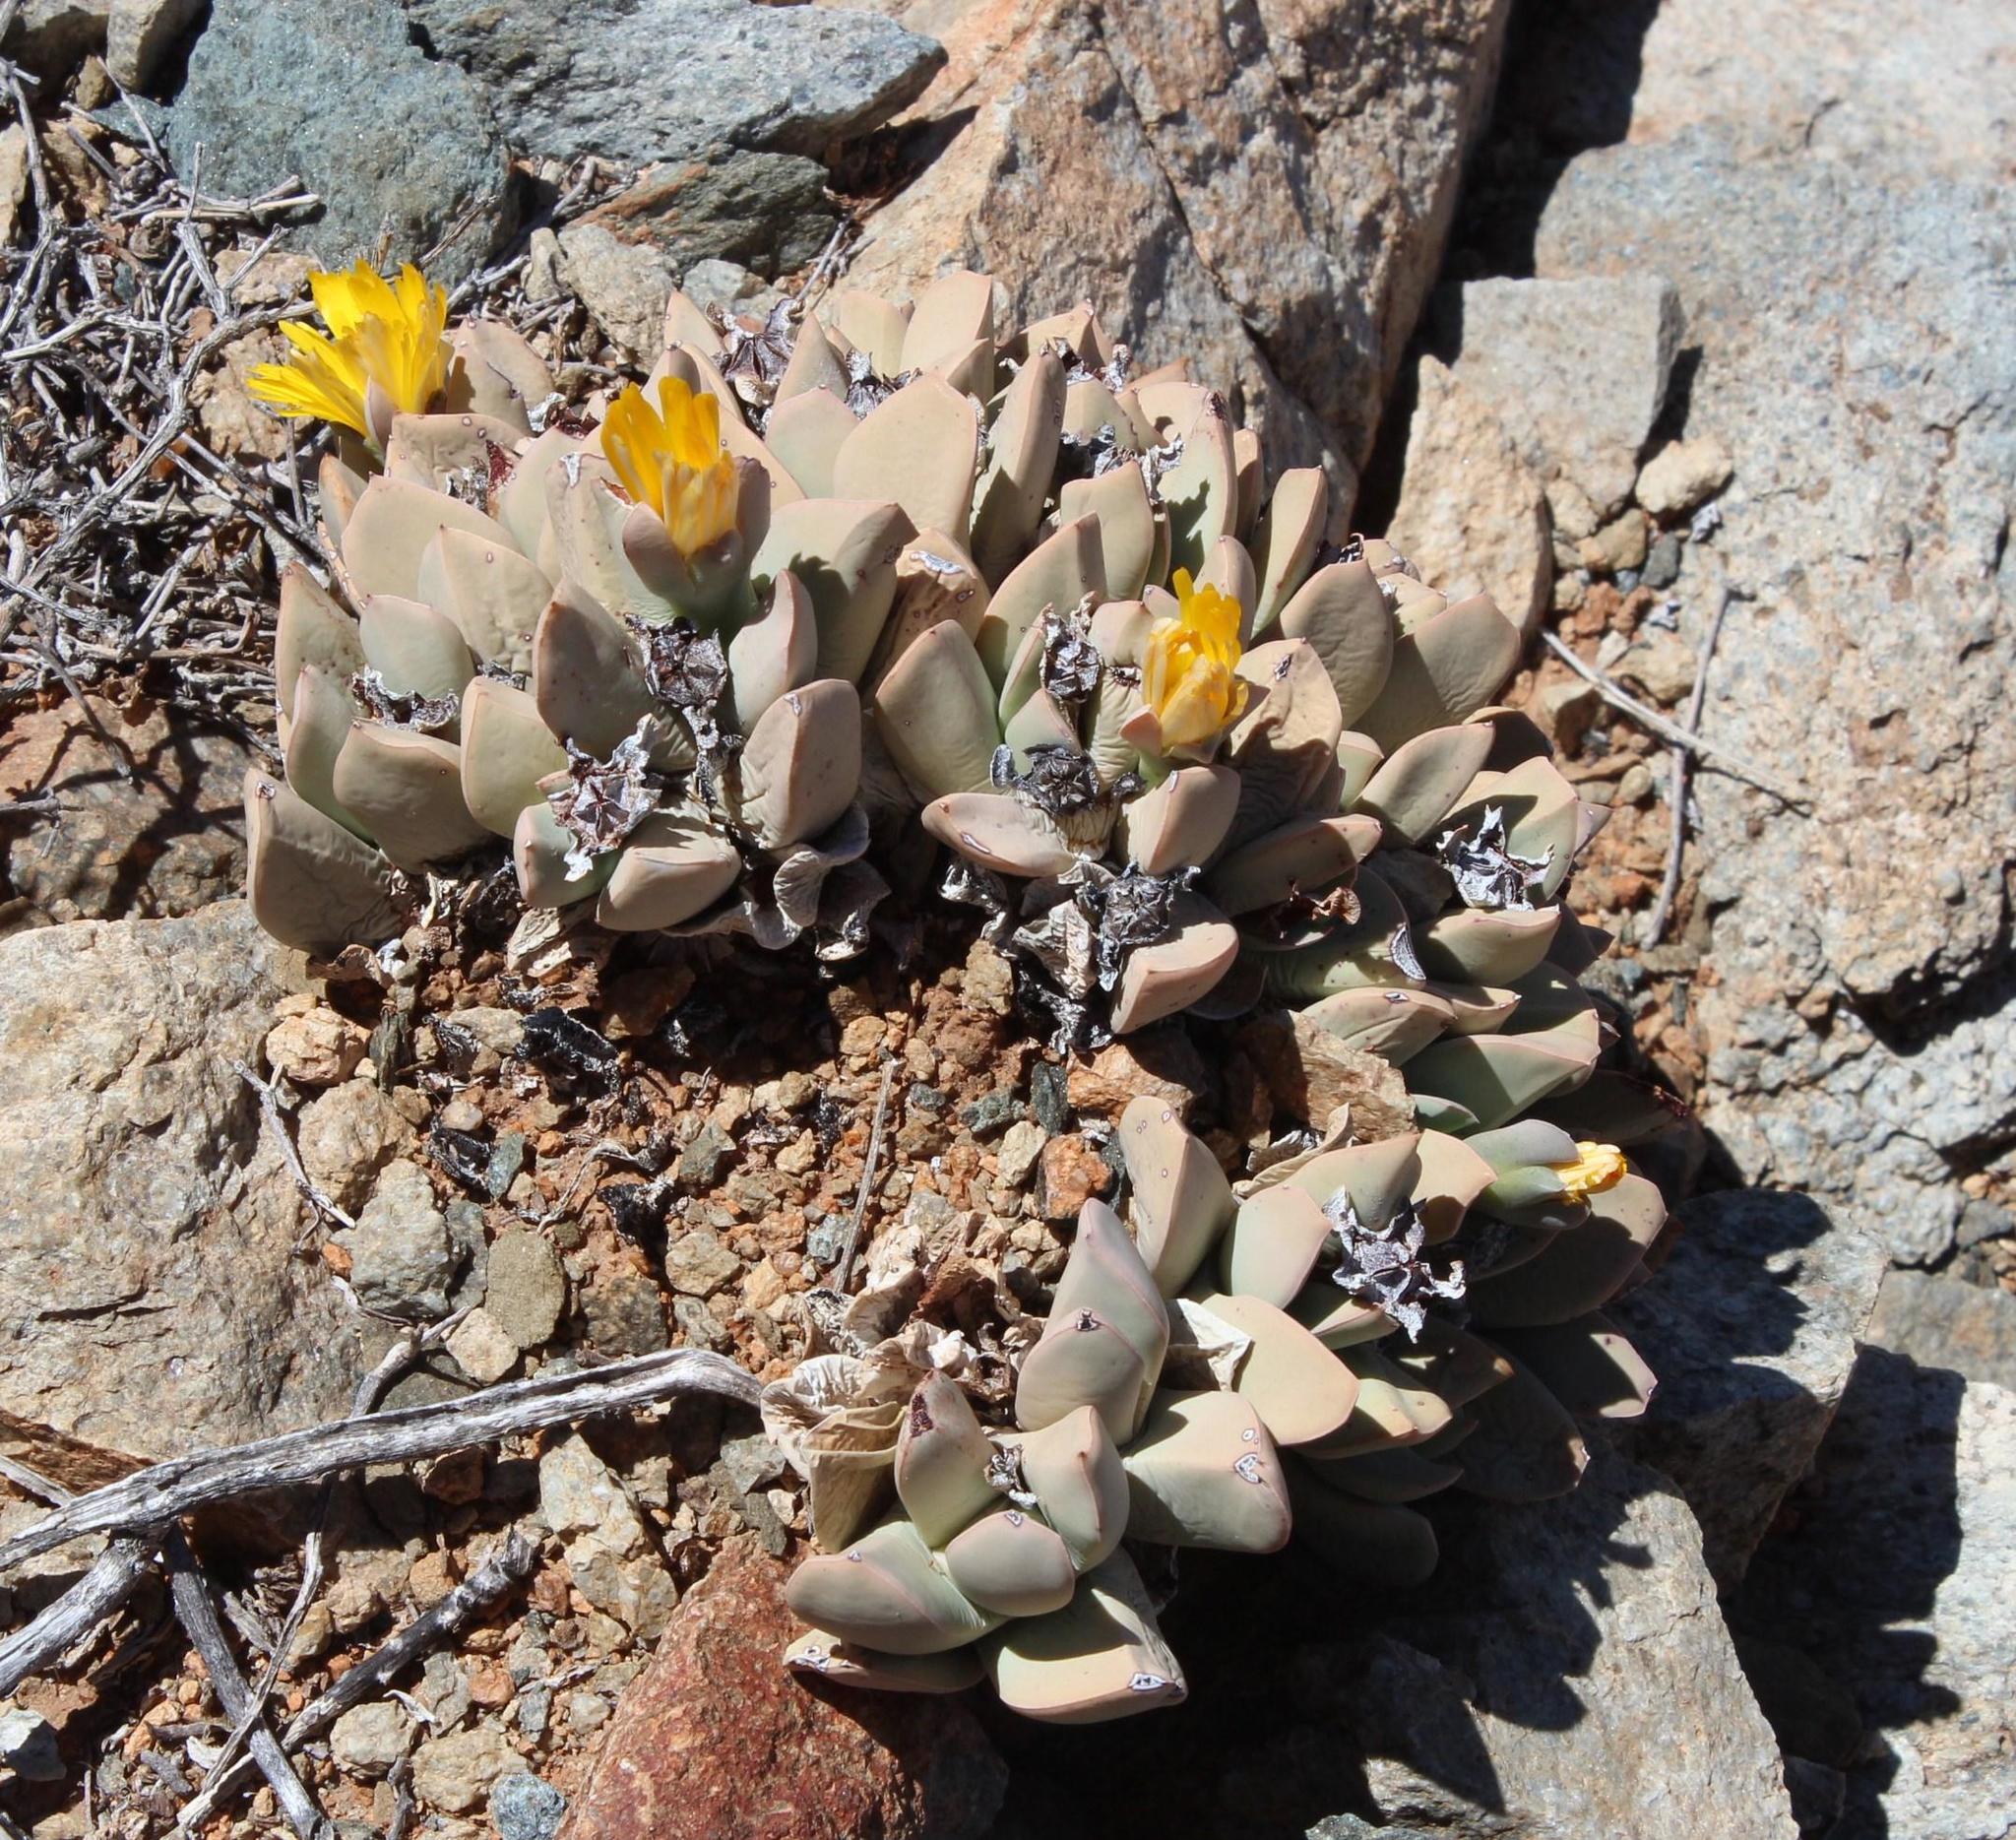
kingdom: Plantae
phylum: Tracheophyta
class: Magnoliopsida
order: Caryophyllales
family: Aizoaceae
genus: Schwantesia
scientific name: Schwantesia herrei
